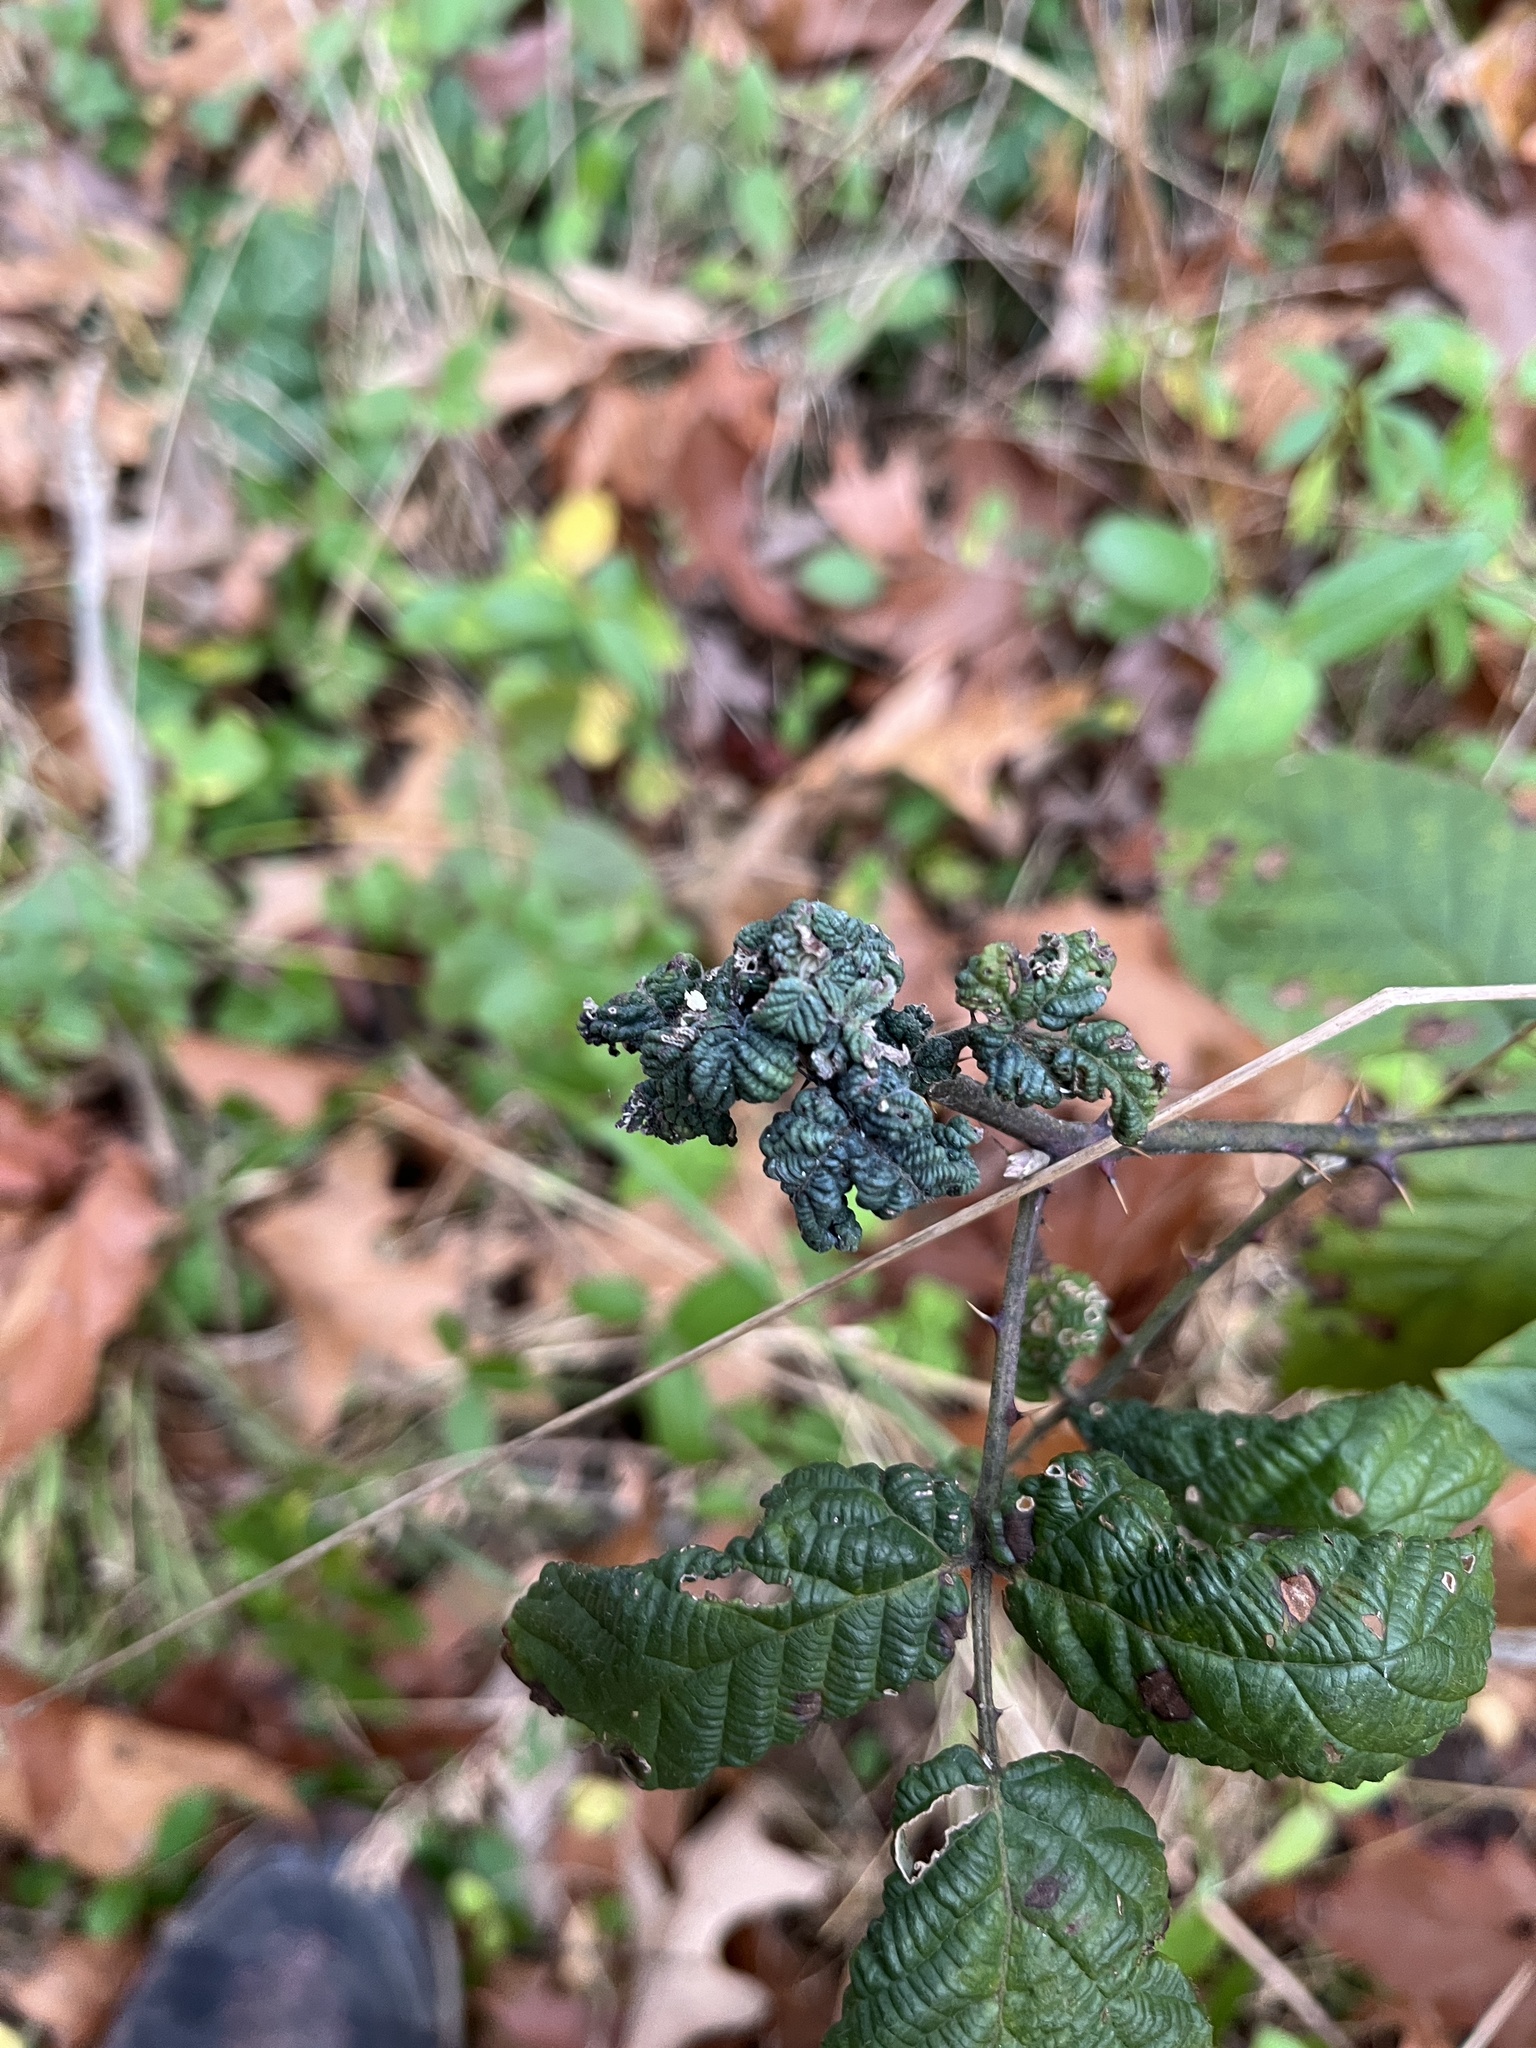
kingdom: Animalia
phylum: Arthropoda
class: Insecta
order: Hemiptera
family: Triozidae
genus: Phylloplecta
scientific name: Phylloplecta tripunctata
